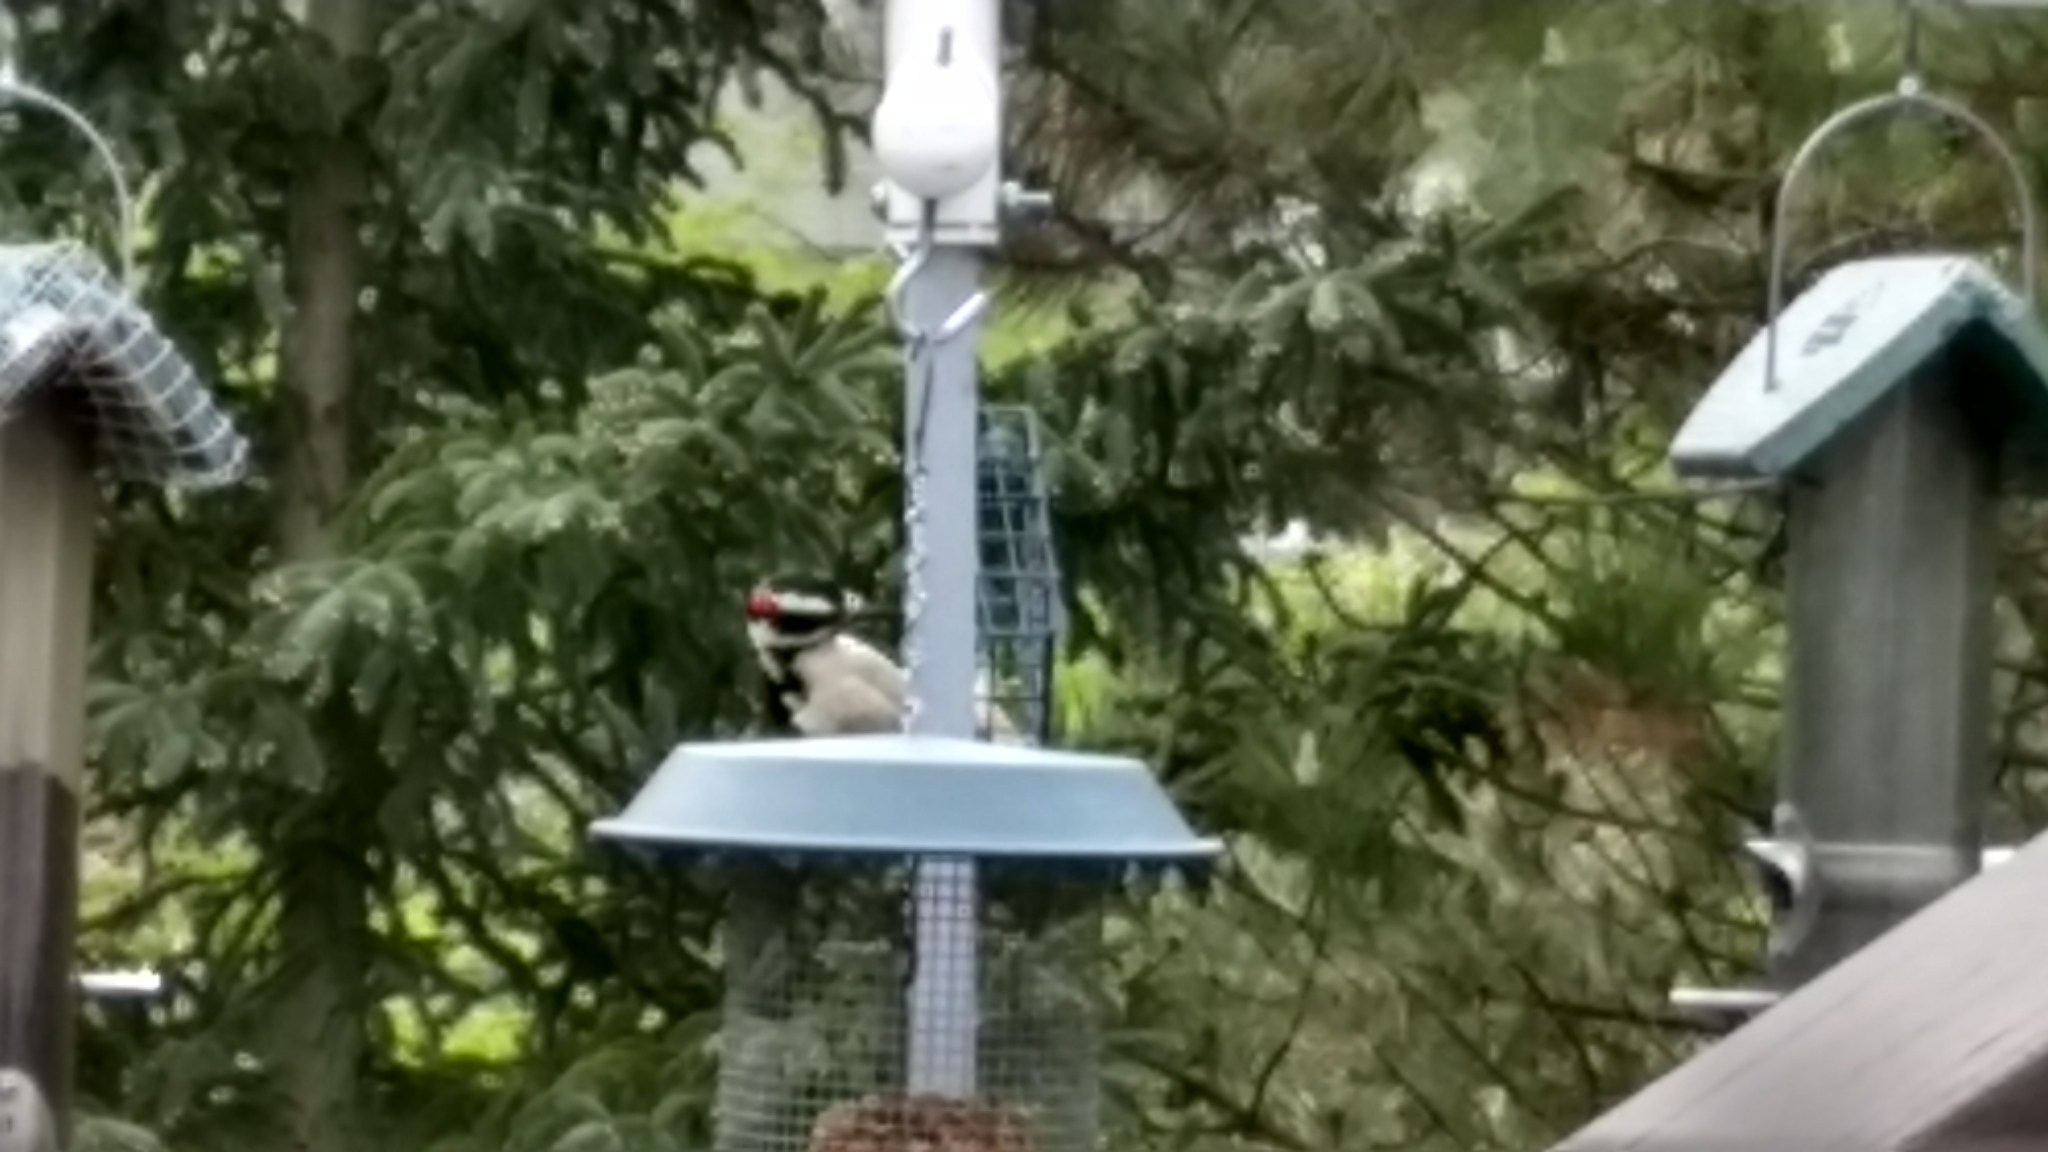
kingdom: Animalia
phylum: Chordata
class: Aves
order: Piciformes
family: Picidae
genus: Leuconotopicus
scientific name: Leuconotopicus villosus
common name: Hairy woodpecker
